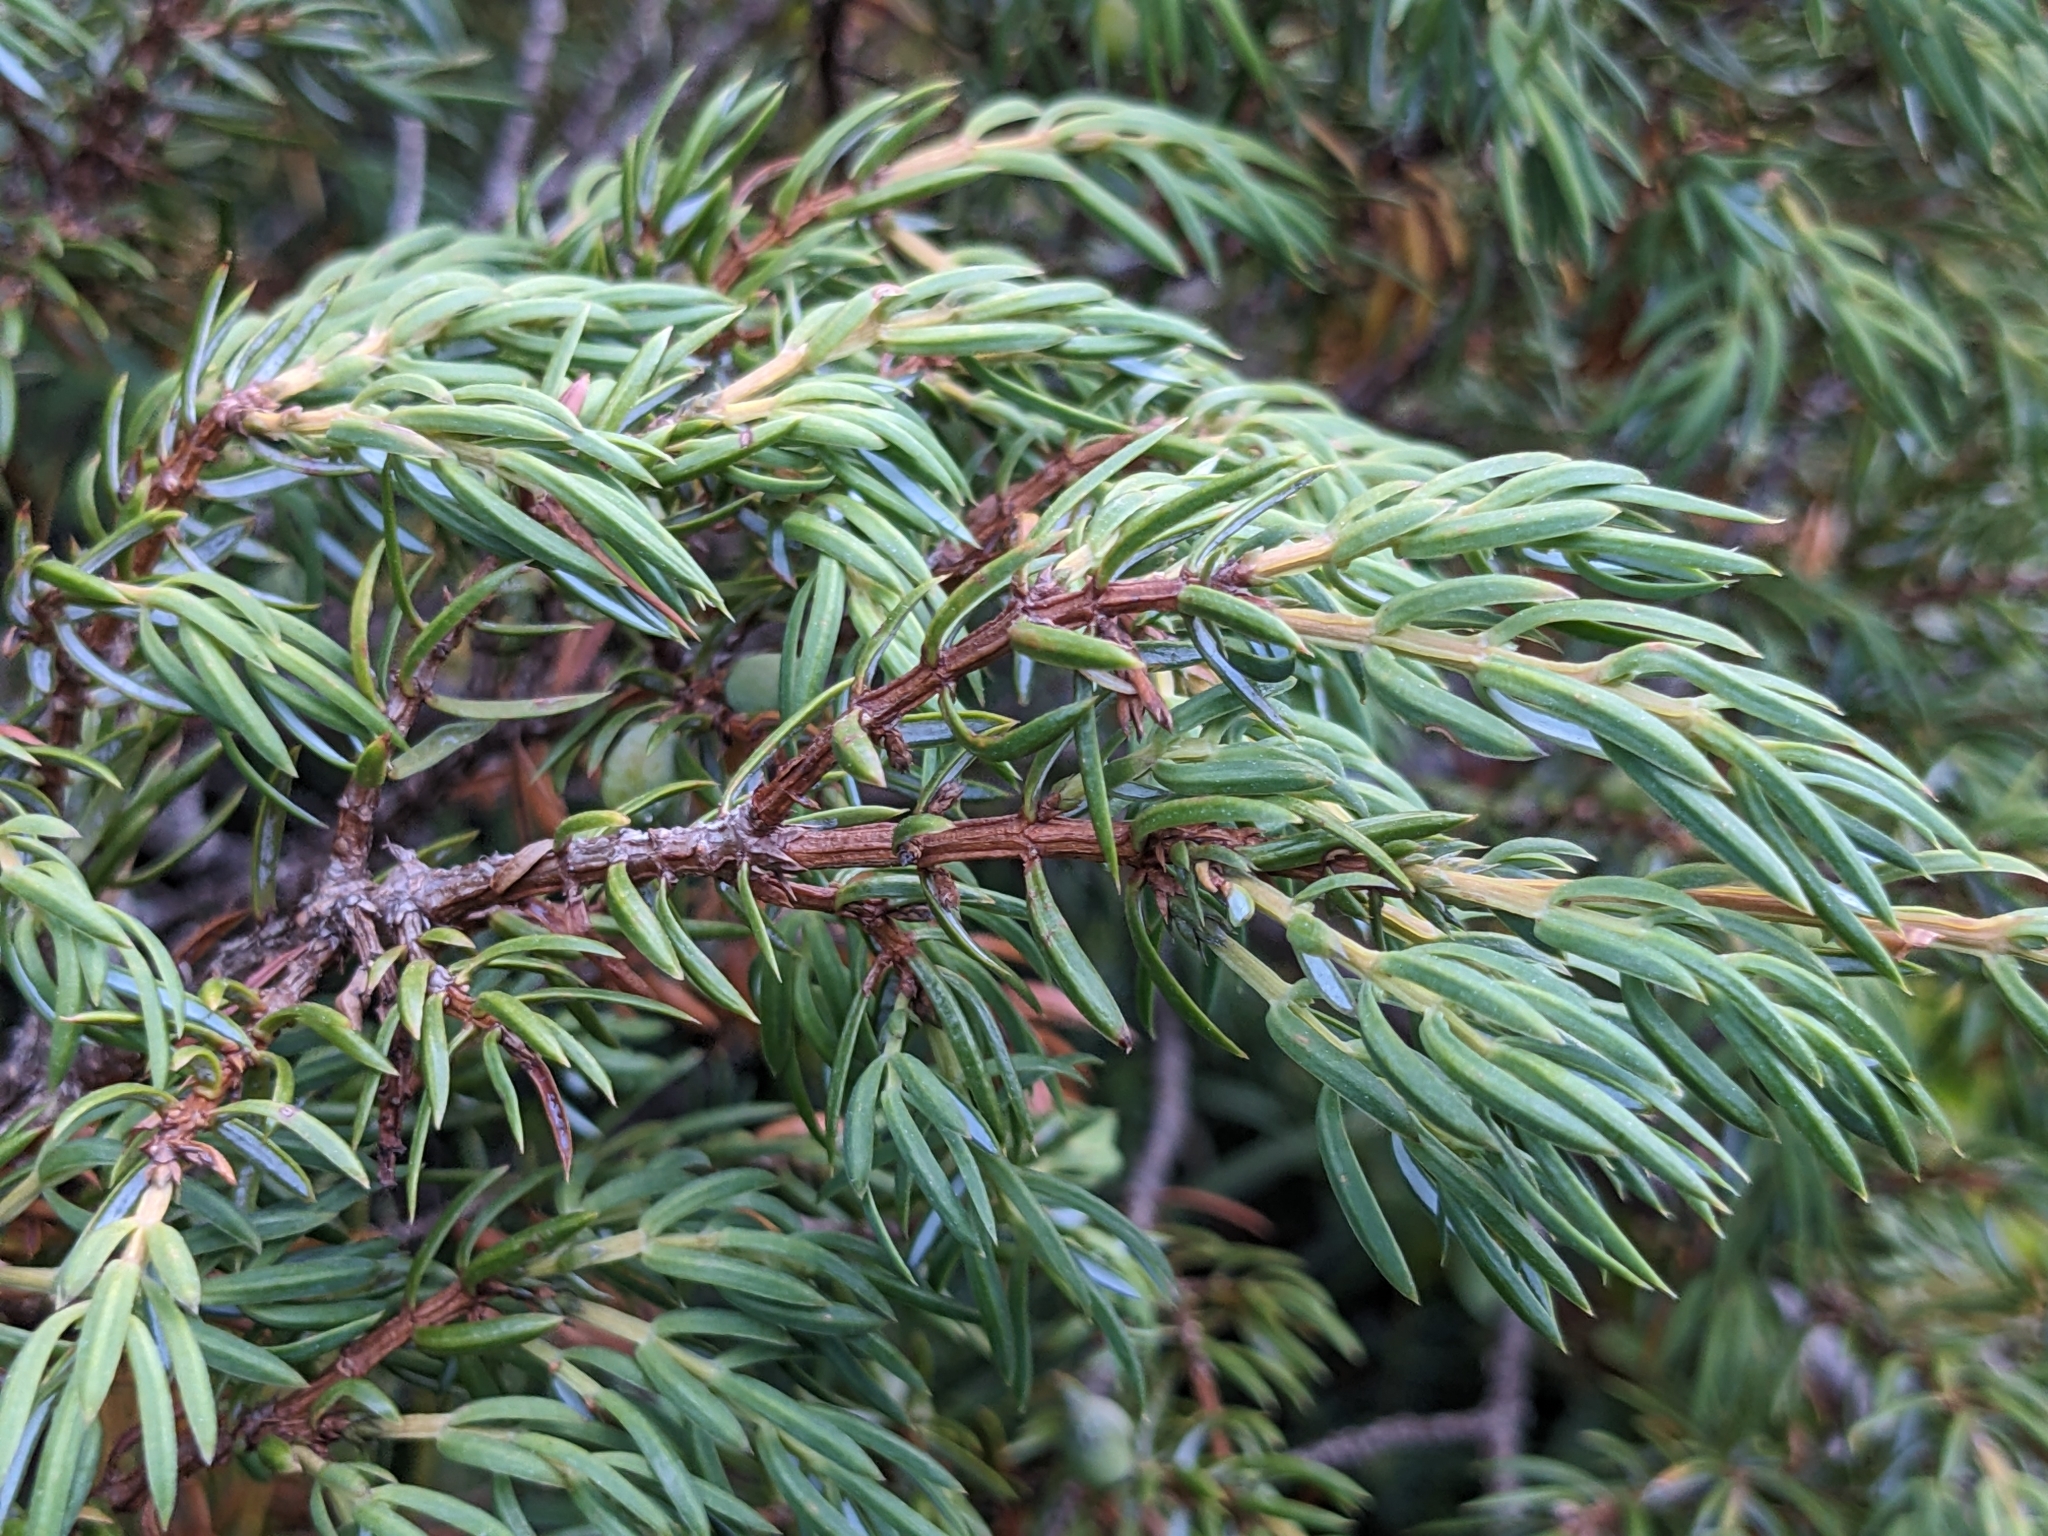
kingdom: Plantae
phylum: Tracheophyta
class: Pinopsida
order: Pinales
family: Cupressaceae
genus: Juniperus
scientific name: Juniperus communis
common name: Common juniper
